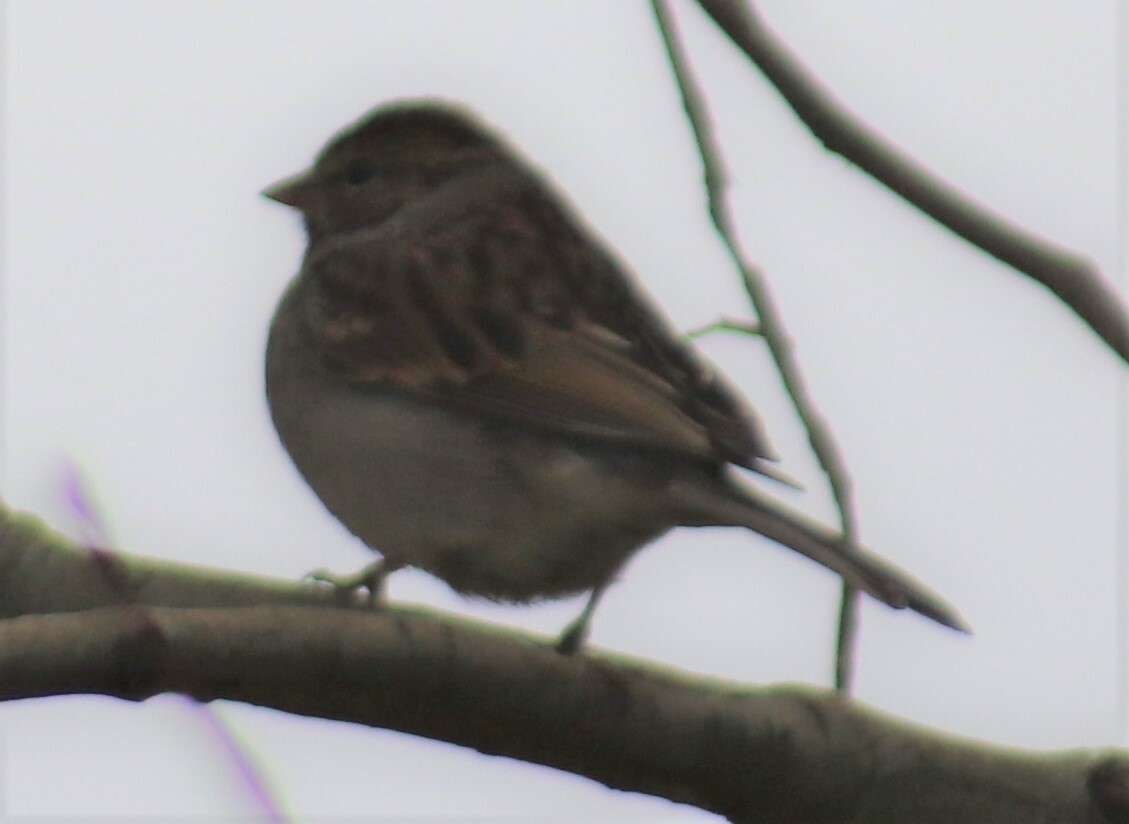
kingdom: Animalia
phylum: Chordata
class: Aves
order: Passeriformes
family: Passerellidae
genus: Spizella
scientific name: Spizella passerina
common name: Chipping sparrow
